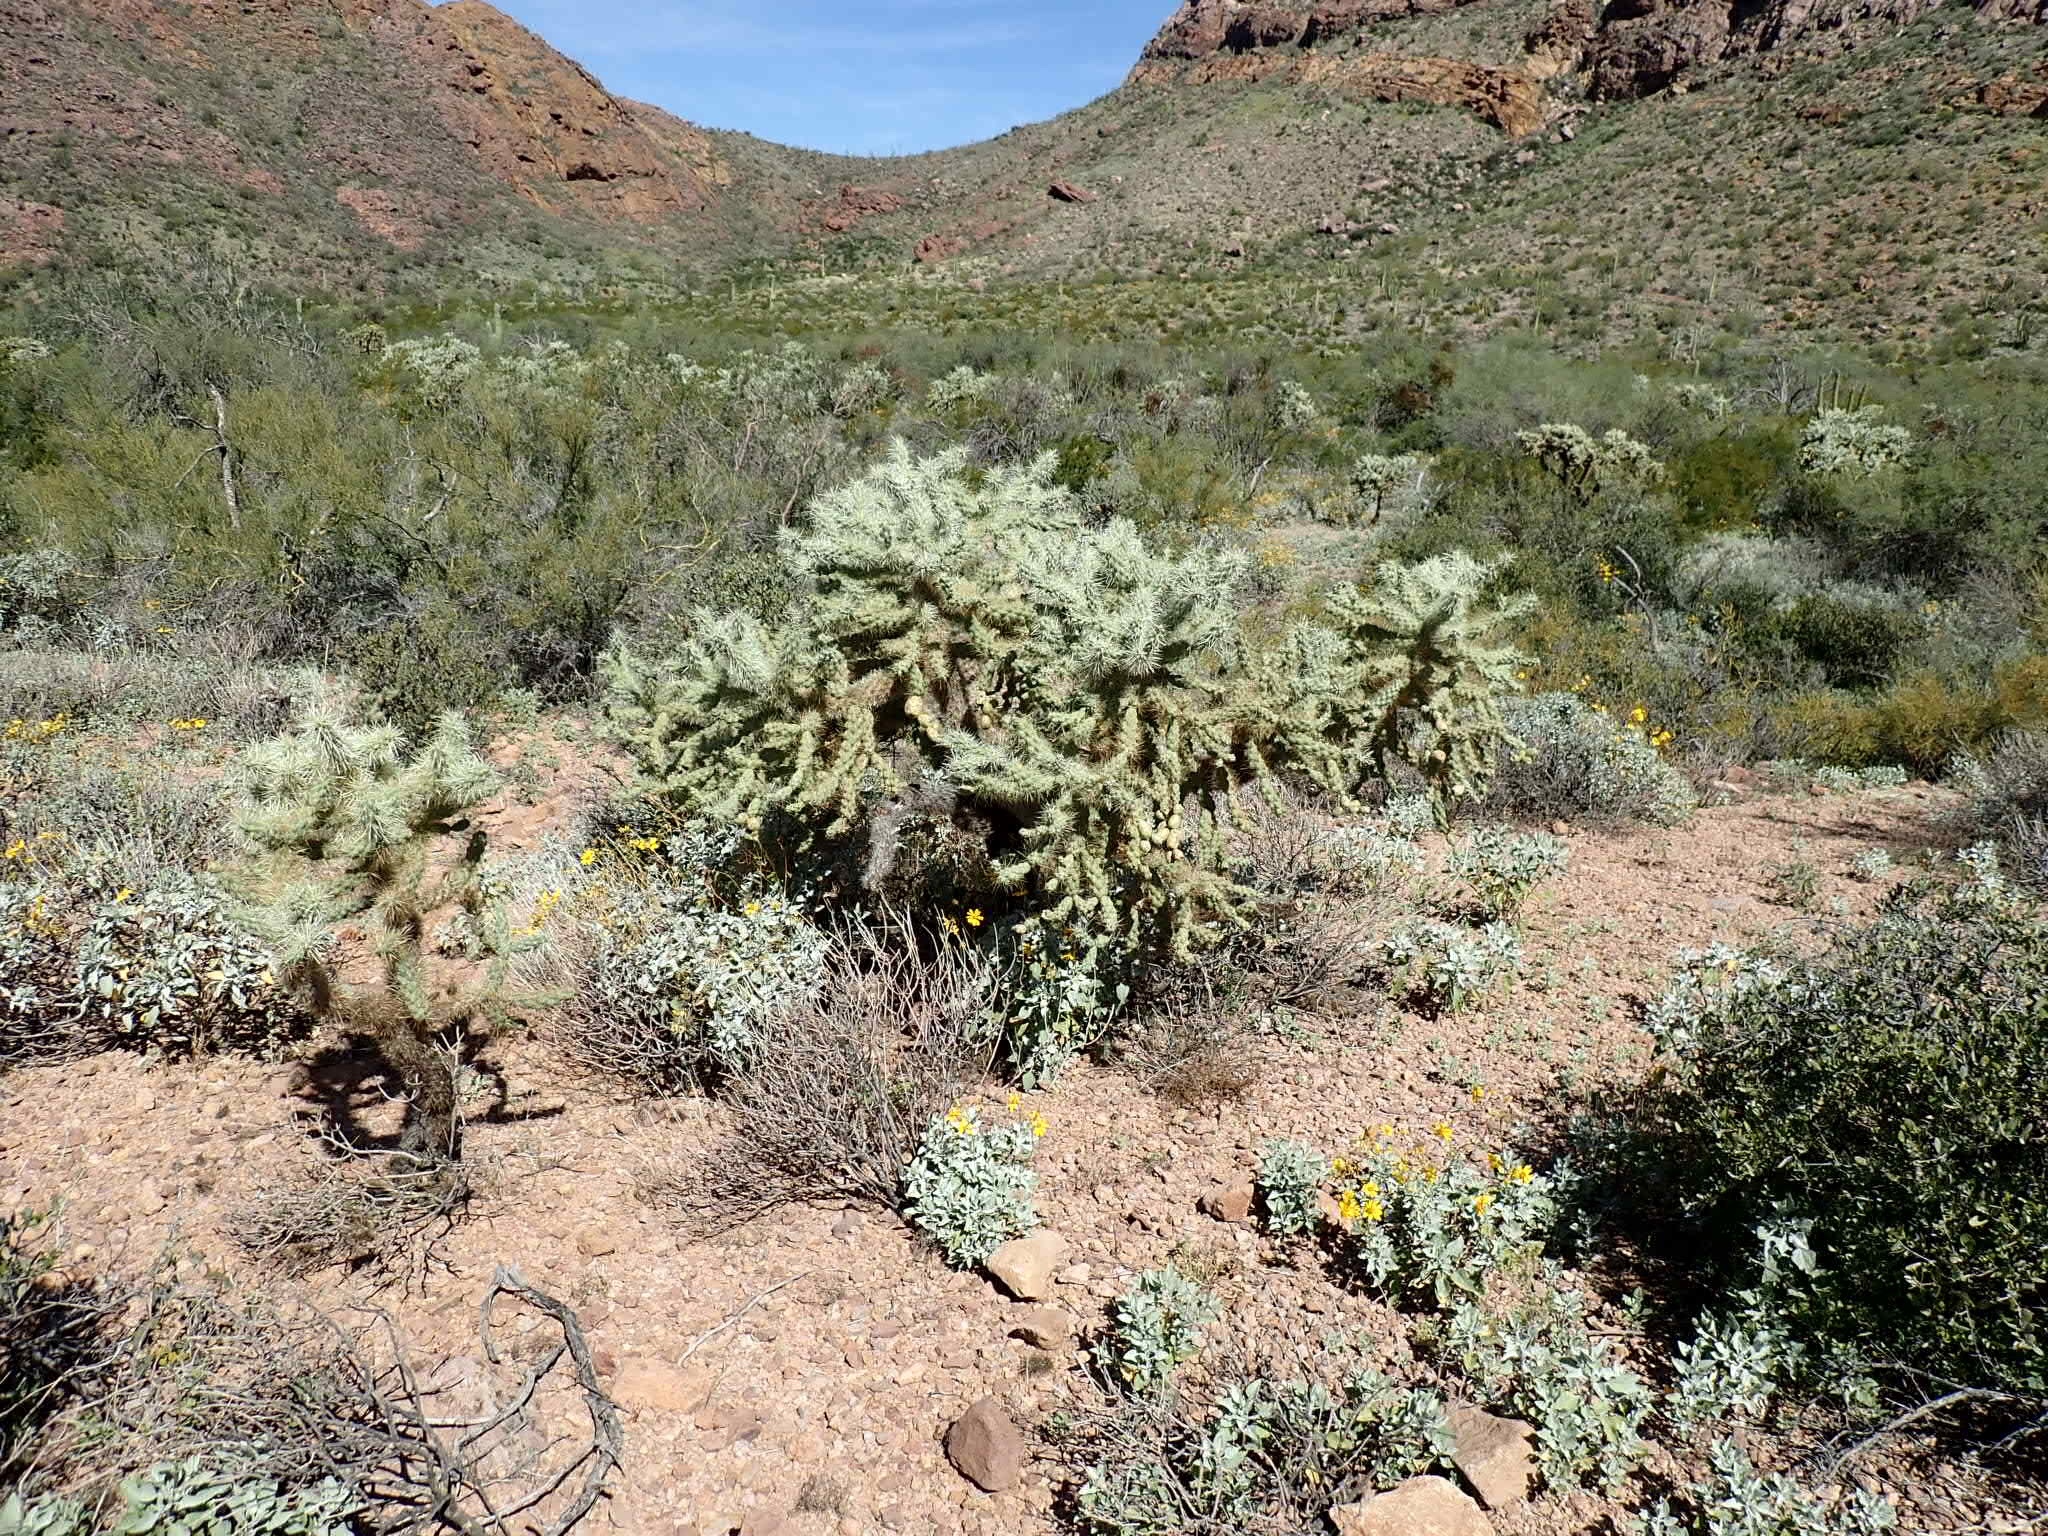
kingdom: Plantae
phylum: Tracheophyta
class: Magnoliopsida
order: Caryophyllales
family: Cactaceae
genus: Cylindropuntia
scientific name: Cylindropuntia fulgida
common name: Jumping cholla
